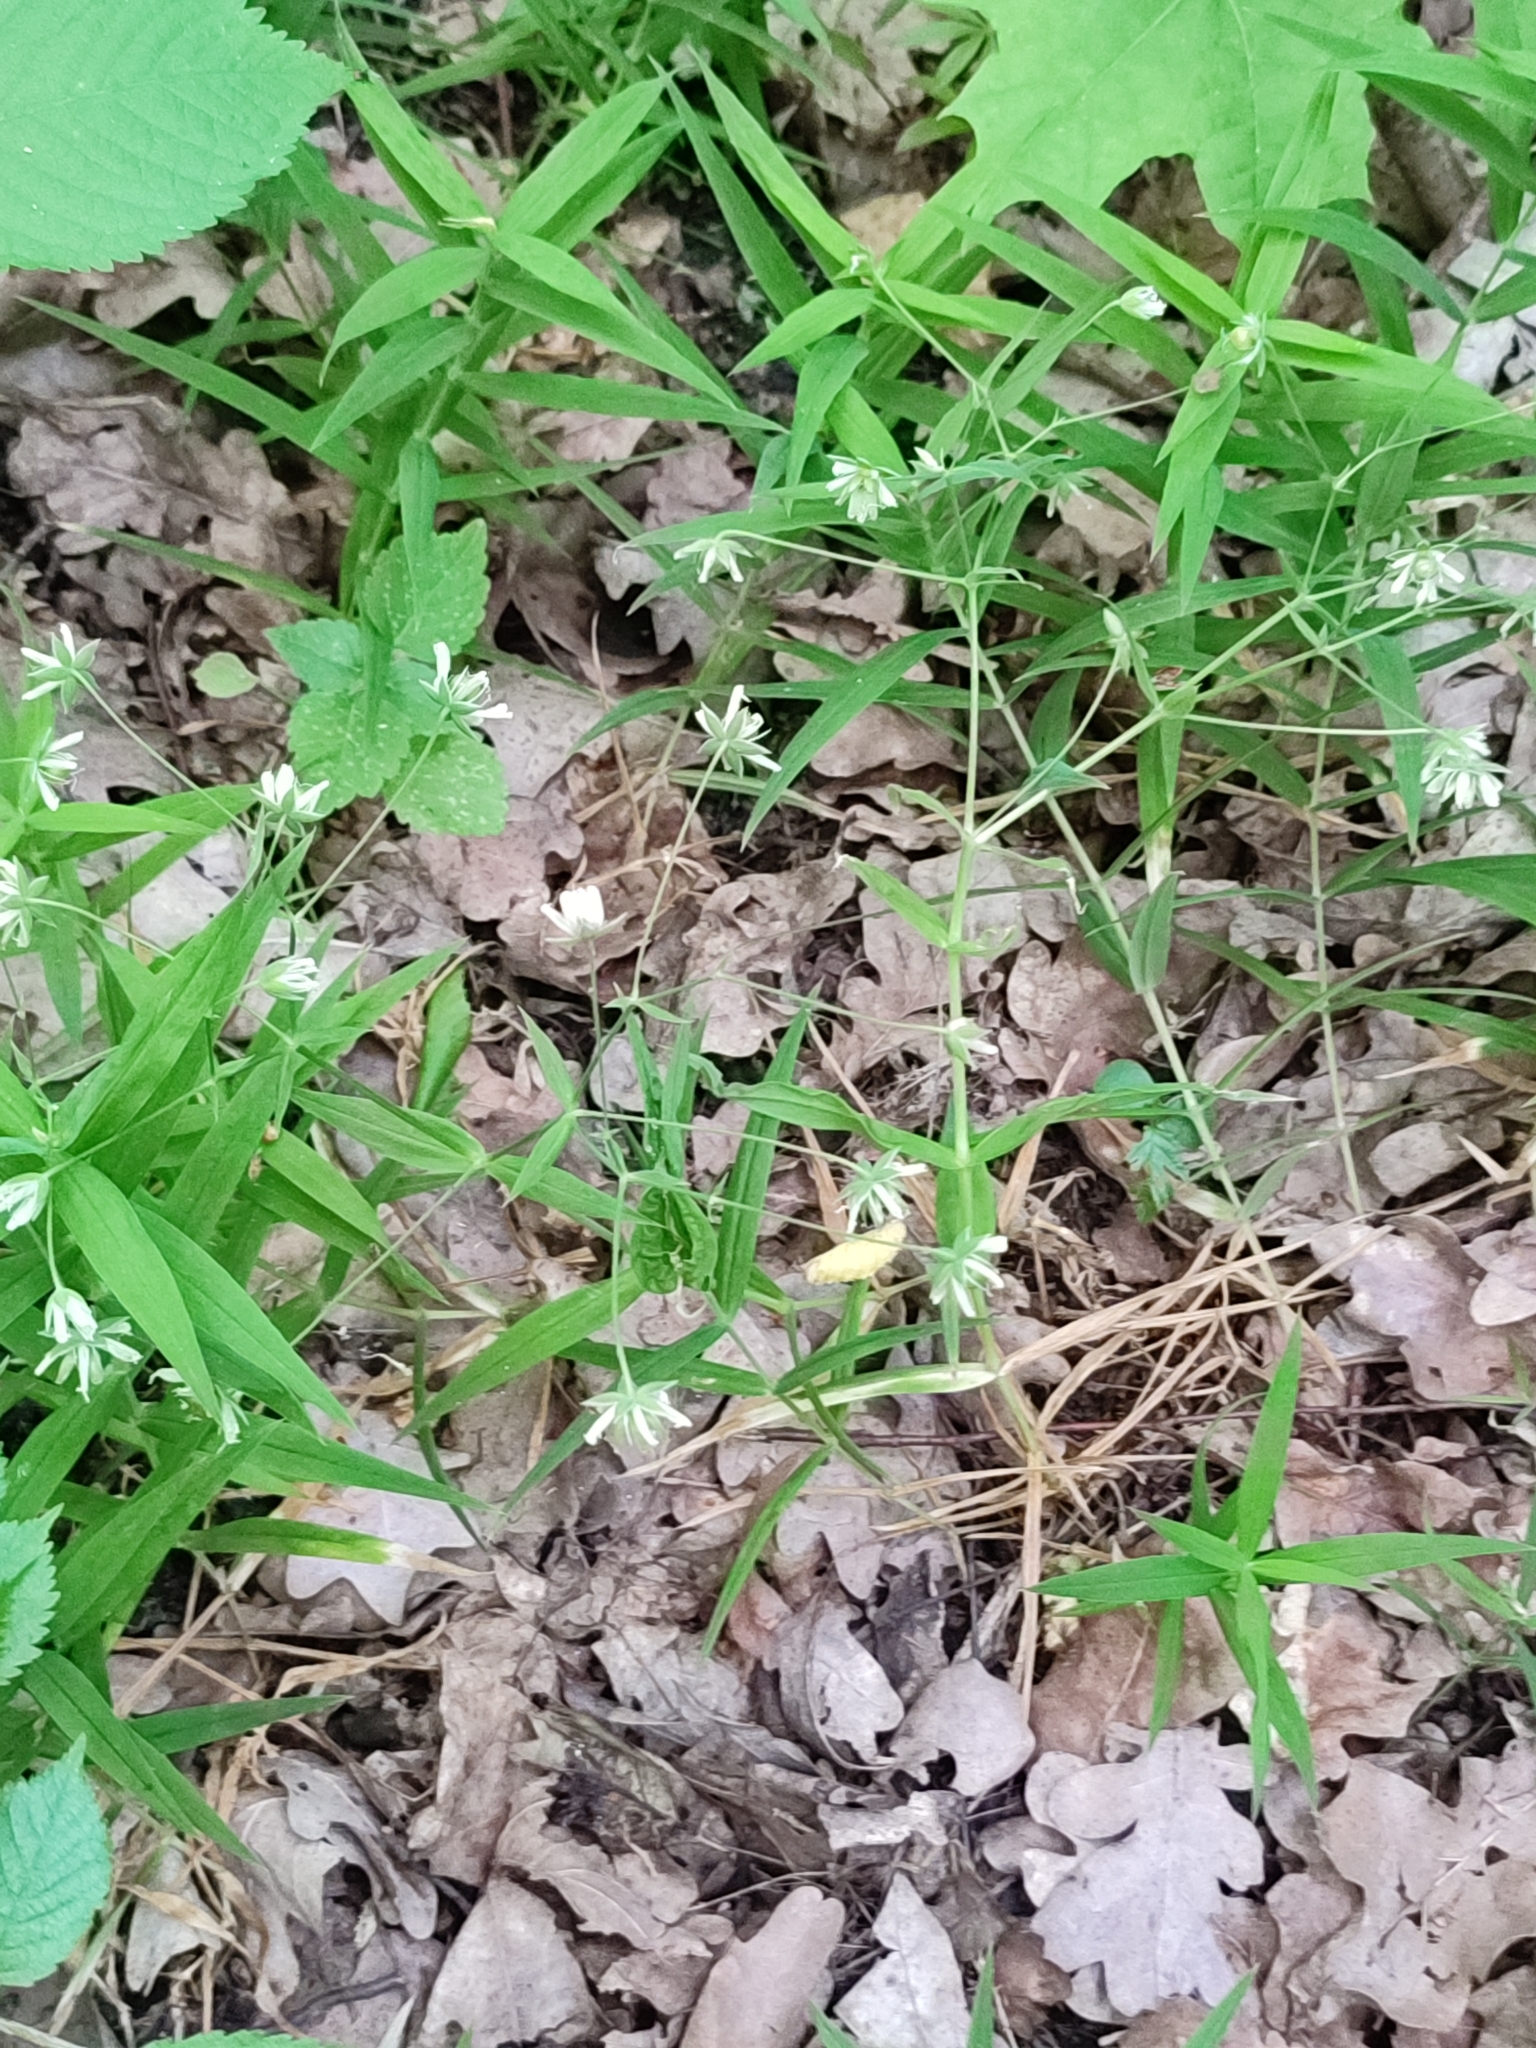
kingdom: Plantae
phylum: Tracheophyta
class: Magnoliopsida
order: Caryophyllales
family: Caryophyllaceae
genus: Rabelera
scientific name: Rabelera holostea
